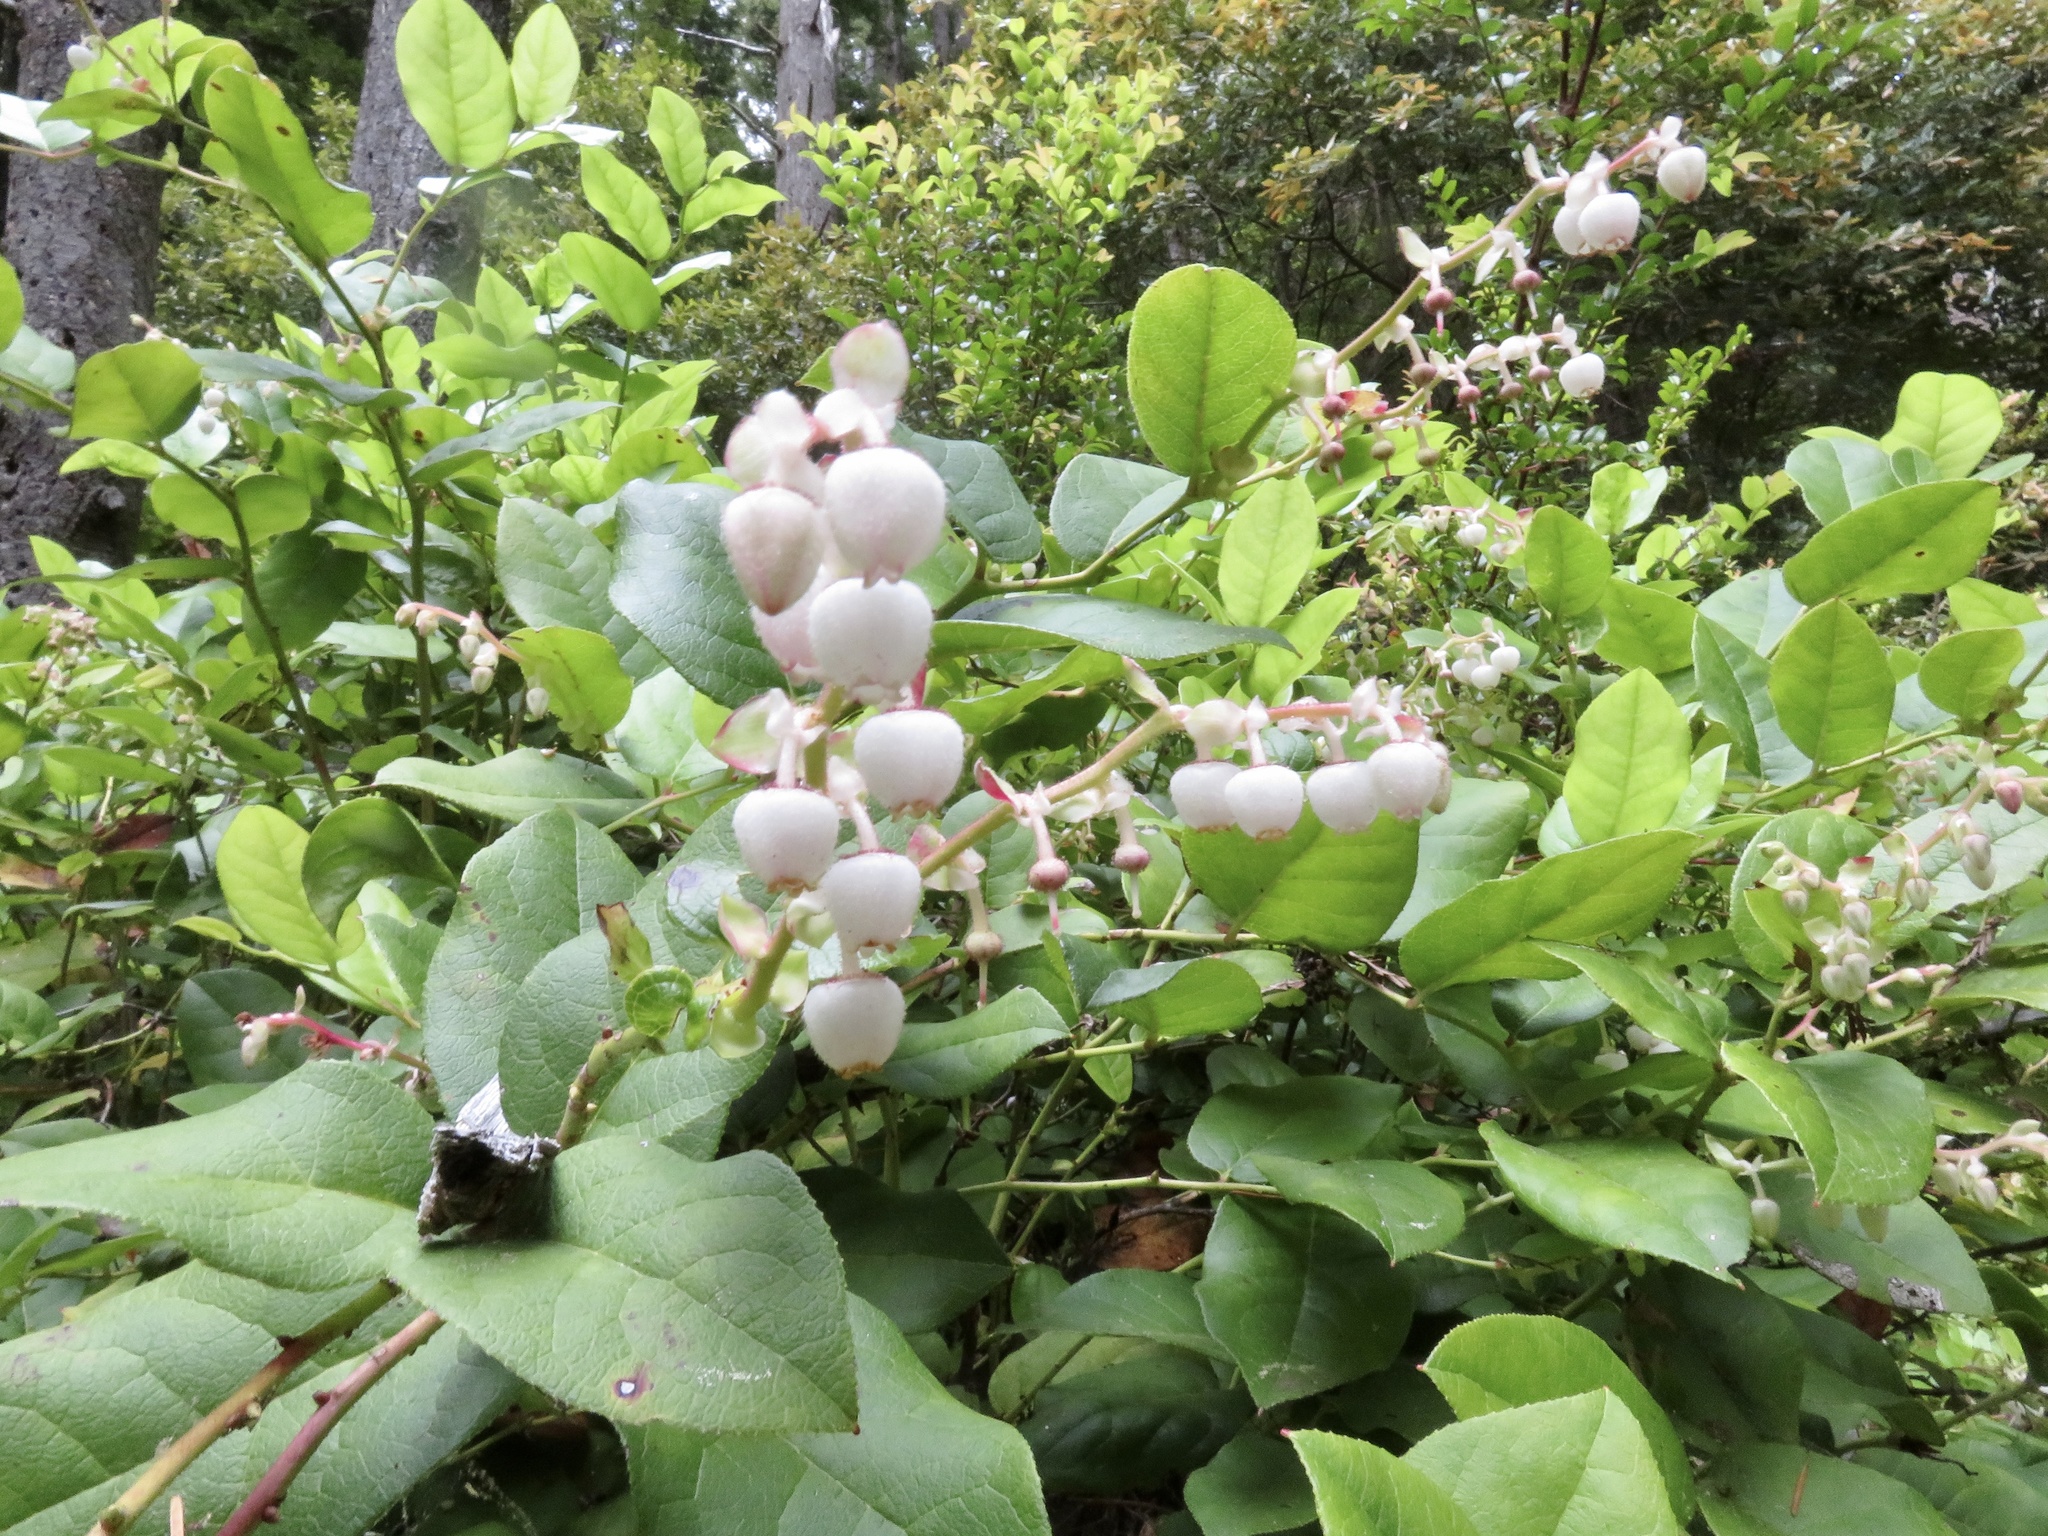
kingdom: Plantae
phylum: Tracheophyta
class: Magnoliopsida
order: Ericales
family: Ericaceae
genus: Gaultheria
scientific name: Gaultheria shallon
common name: Shallon
